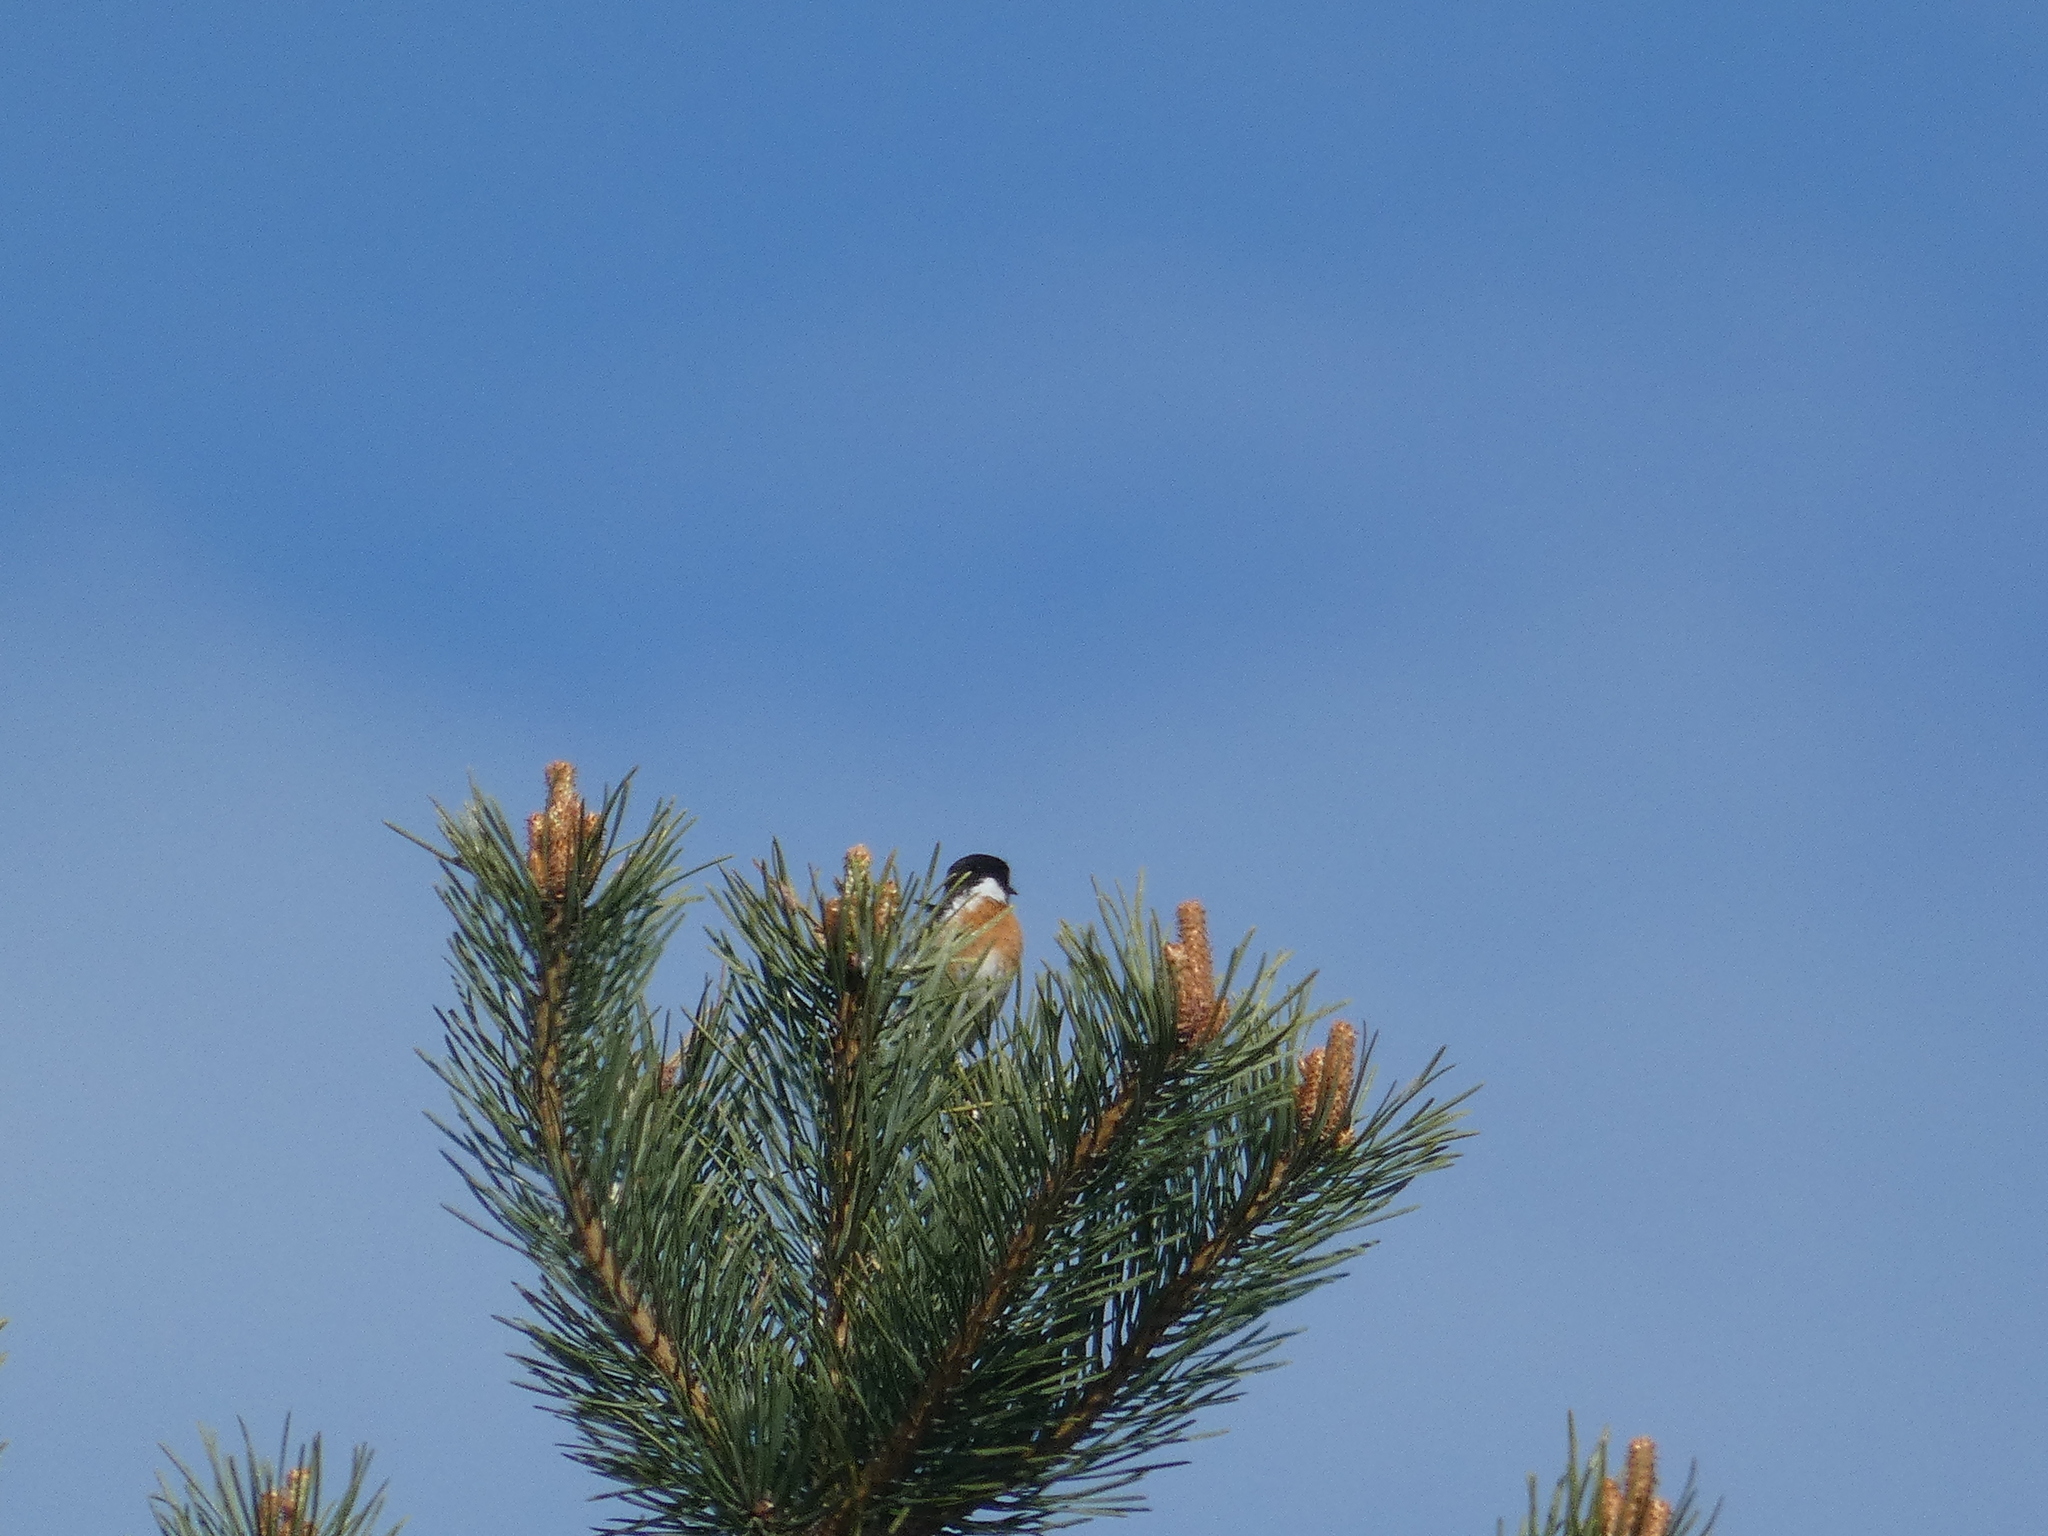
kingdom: Animalia
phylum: Chordata
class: Aves
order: Passeriformes
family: Muscicapidae
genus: Saxicola
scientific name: Saxicola rubicola
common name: European stonechat
